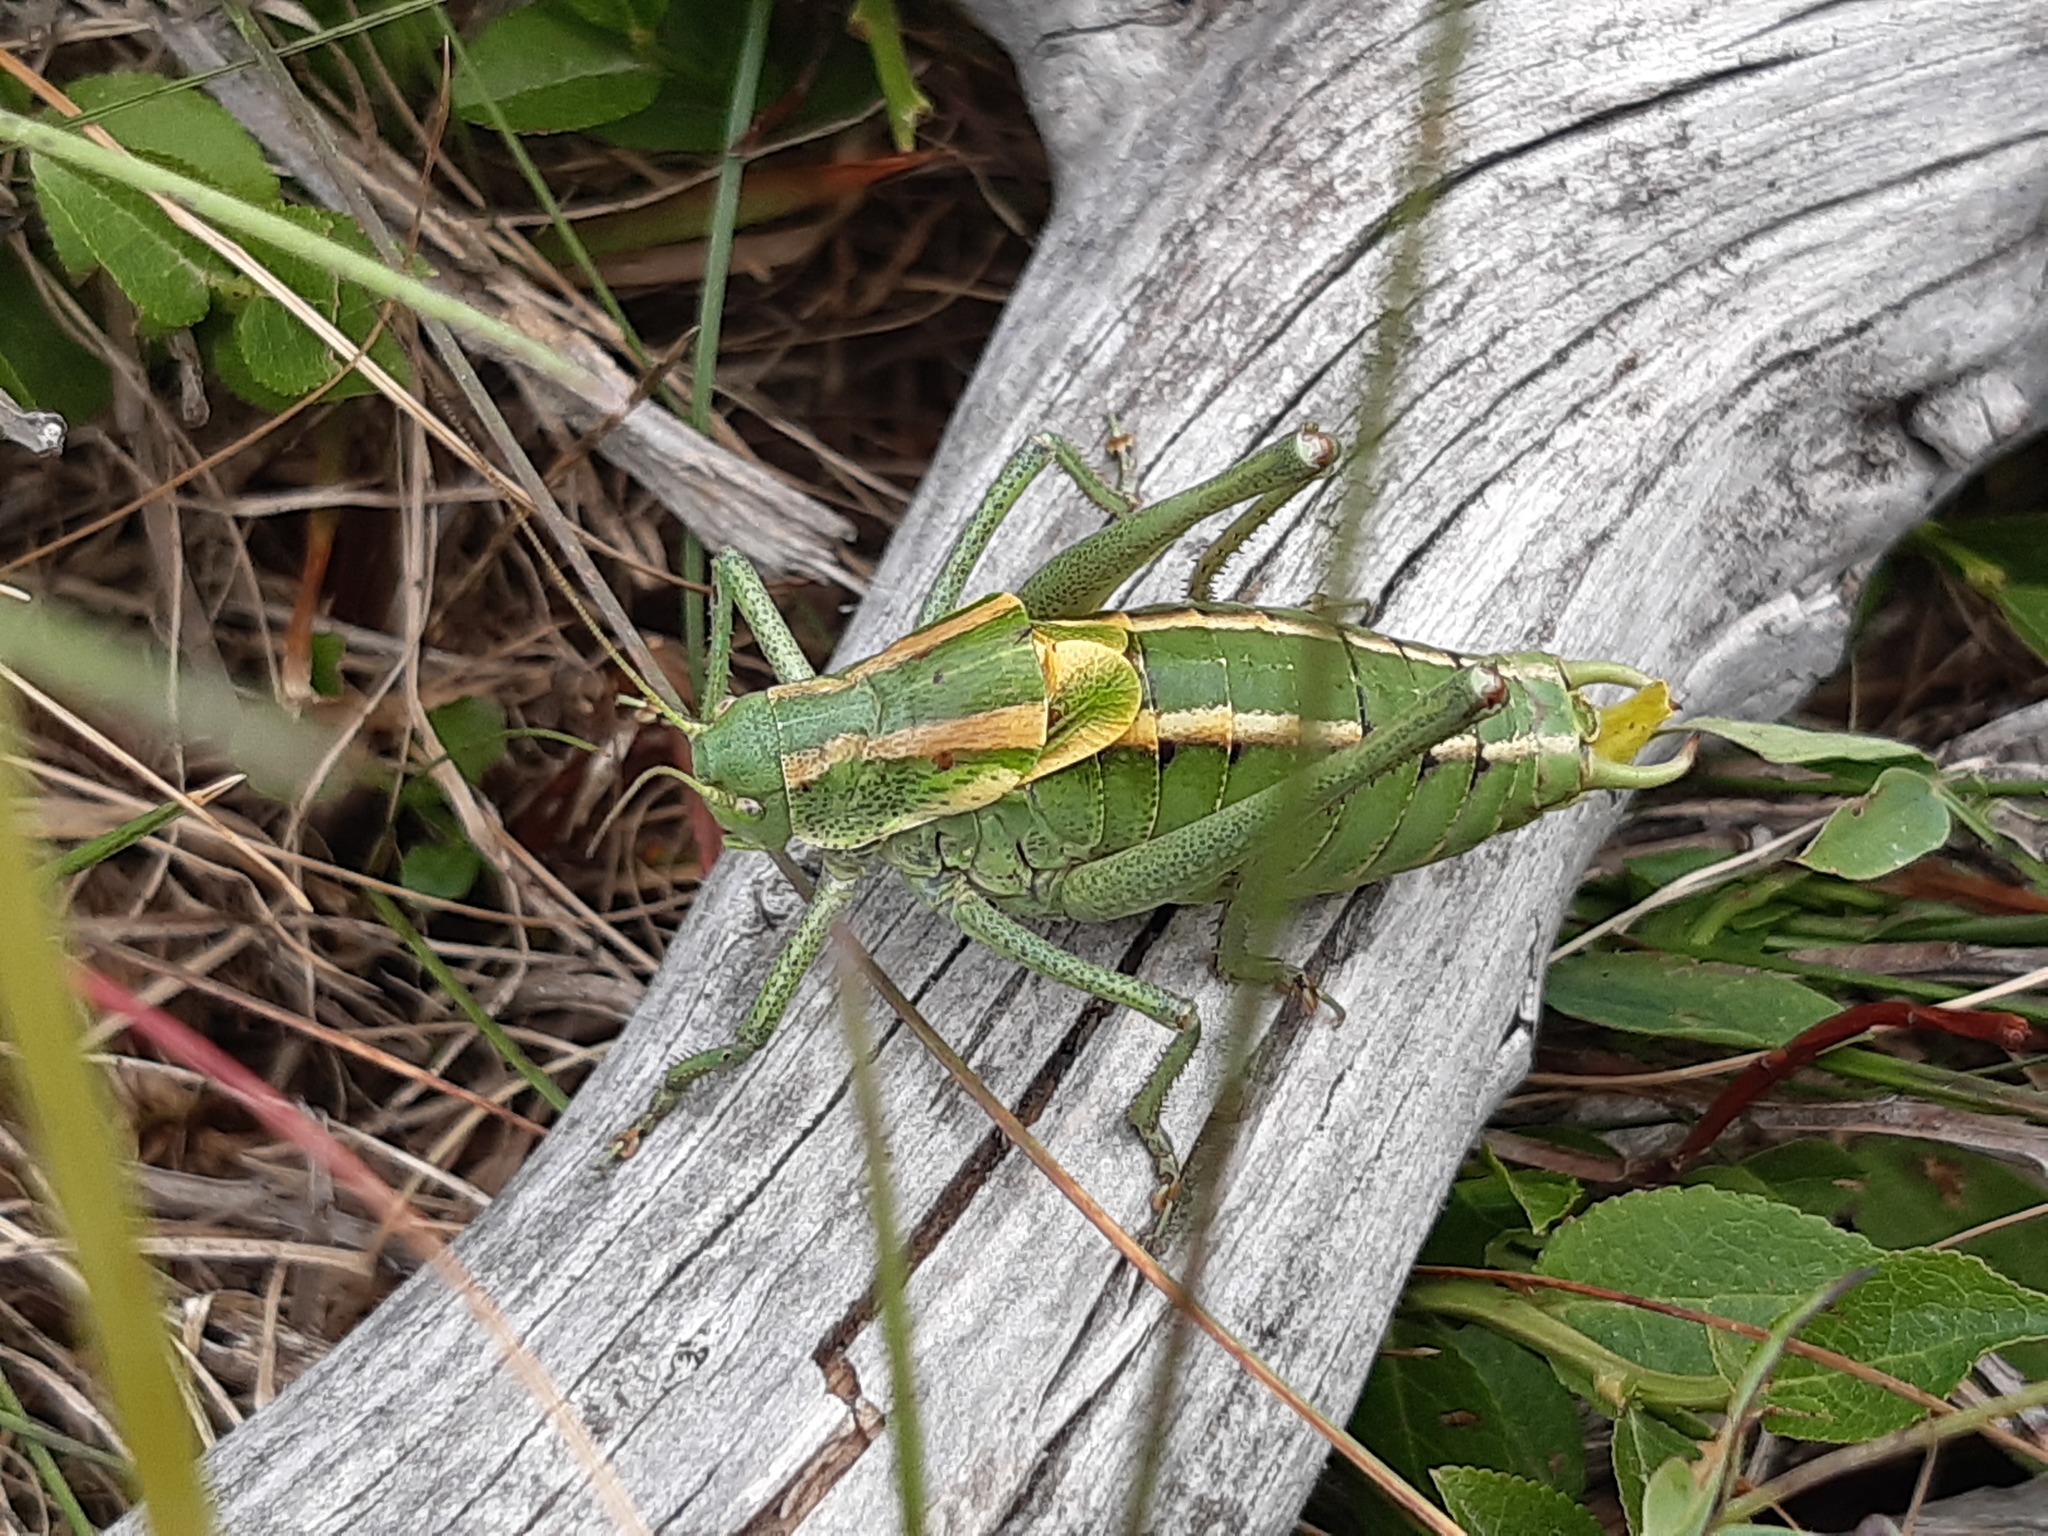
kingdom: Animalia
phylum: Arthropoda
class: Insecta
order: Orthoptera
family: Tettigoniidae
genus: Polysarcus
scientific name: Polysarcus denticauda
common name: Large saw-tailed bush-cricket
